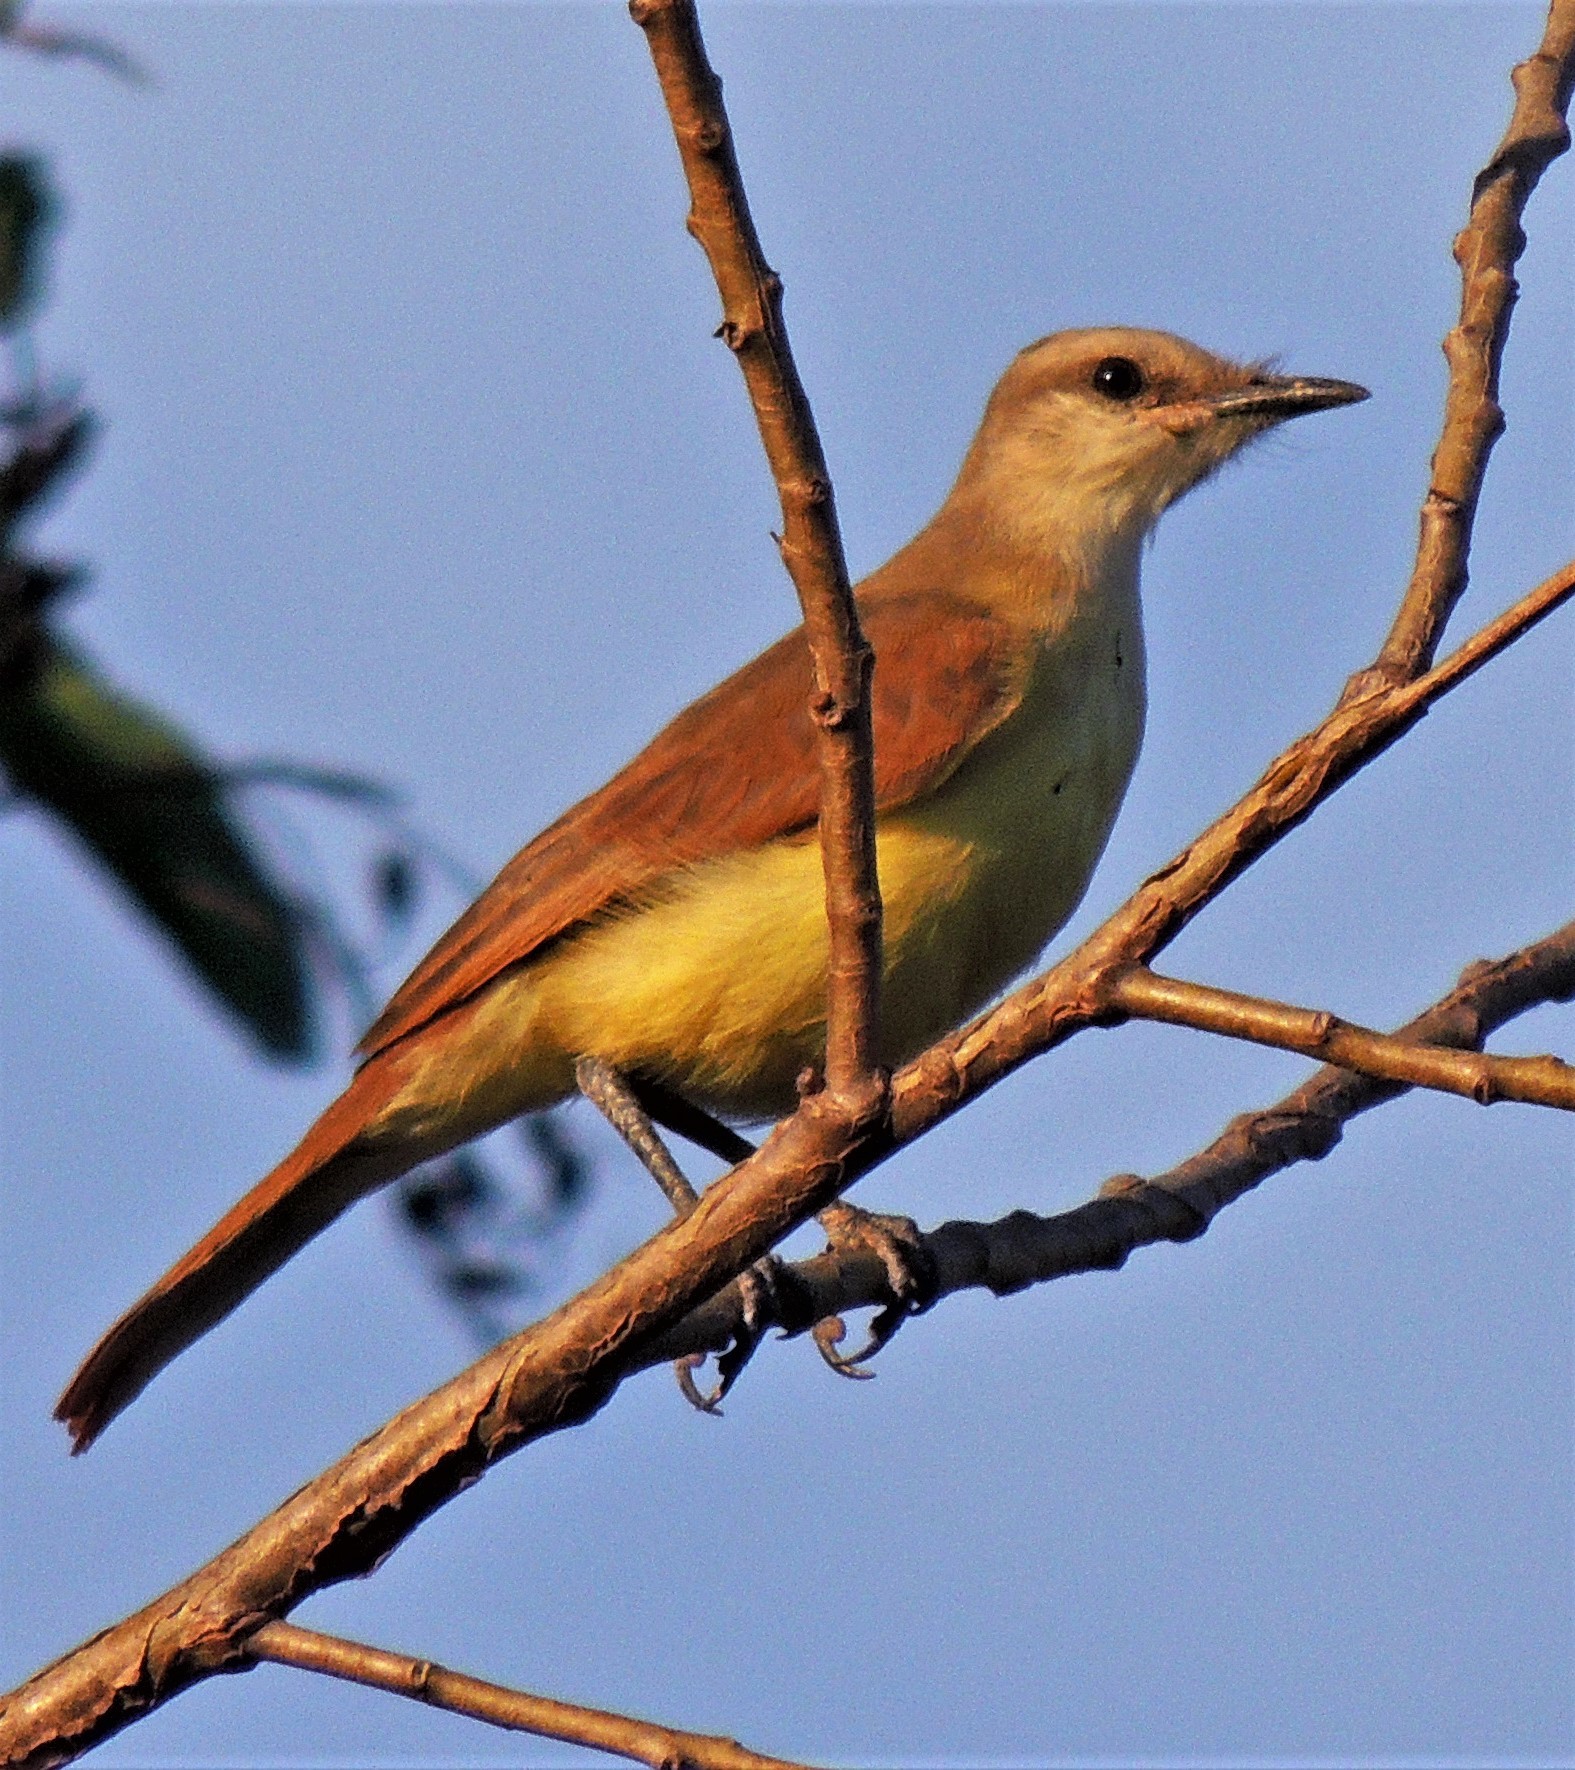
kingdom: Animalia
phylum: Chordata
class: Aves
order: Passeriformes
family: Tyrannidae
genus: Machetornis
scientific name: Machetornis rixosa
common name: Cattle tyrant
